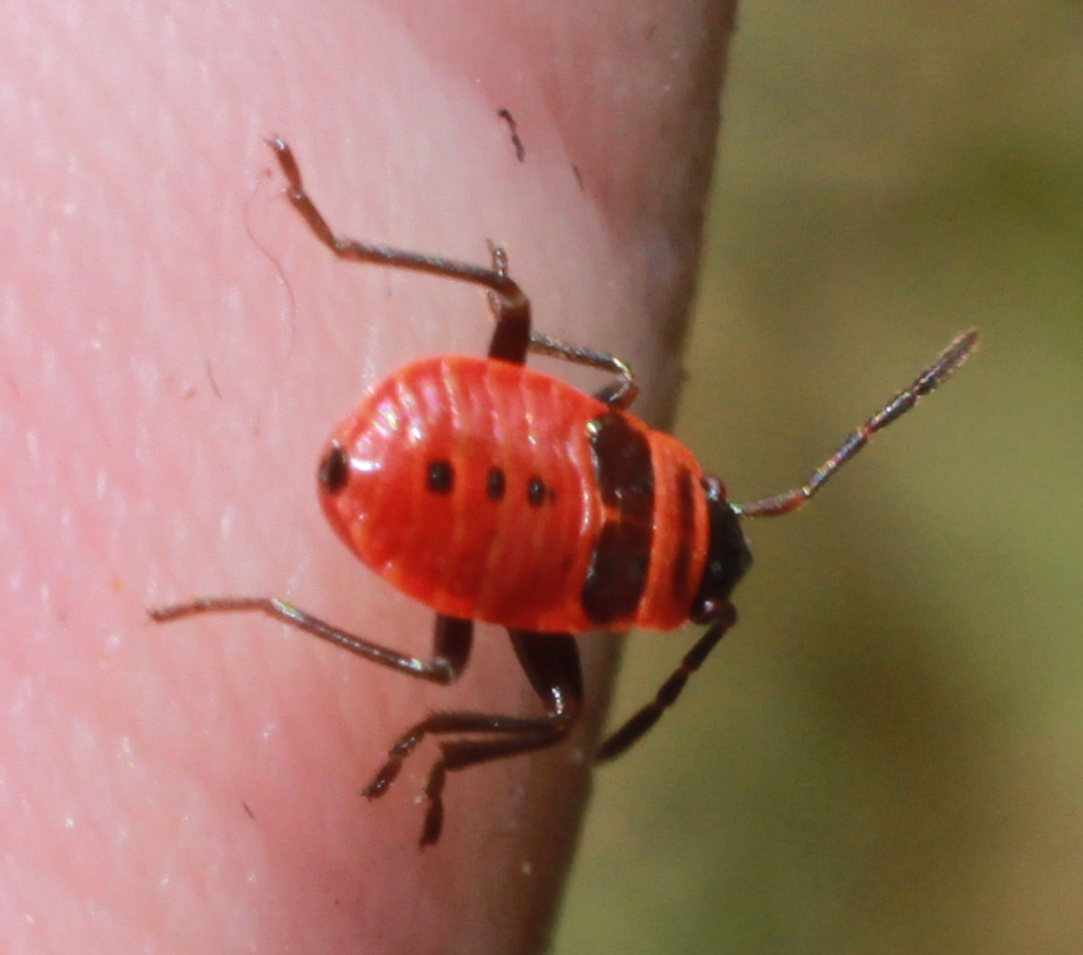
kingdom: Animalia
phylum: Arthropoda
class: Insecta
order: Hemiptera
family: Pyrrhocoridae
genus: Pyrrhocoris
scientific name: Pyrrhocoris apterus
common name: Firebug
